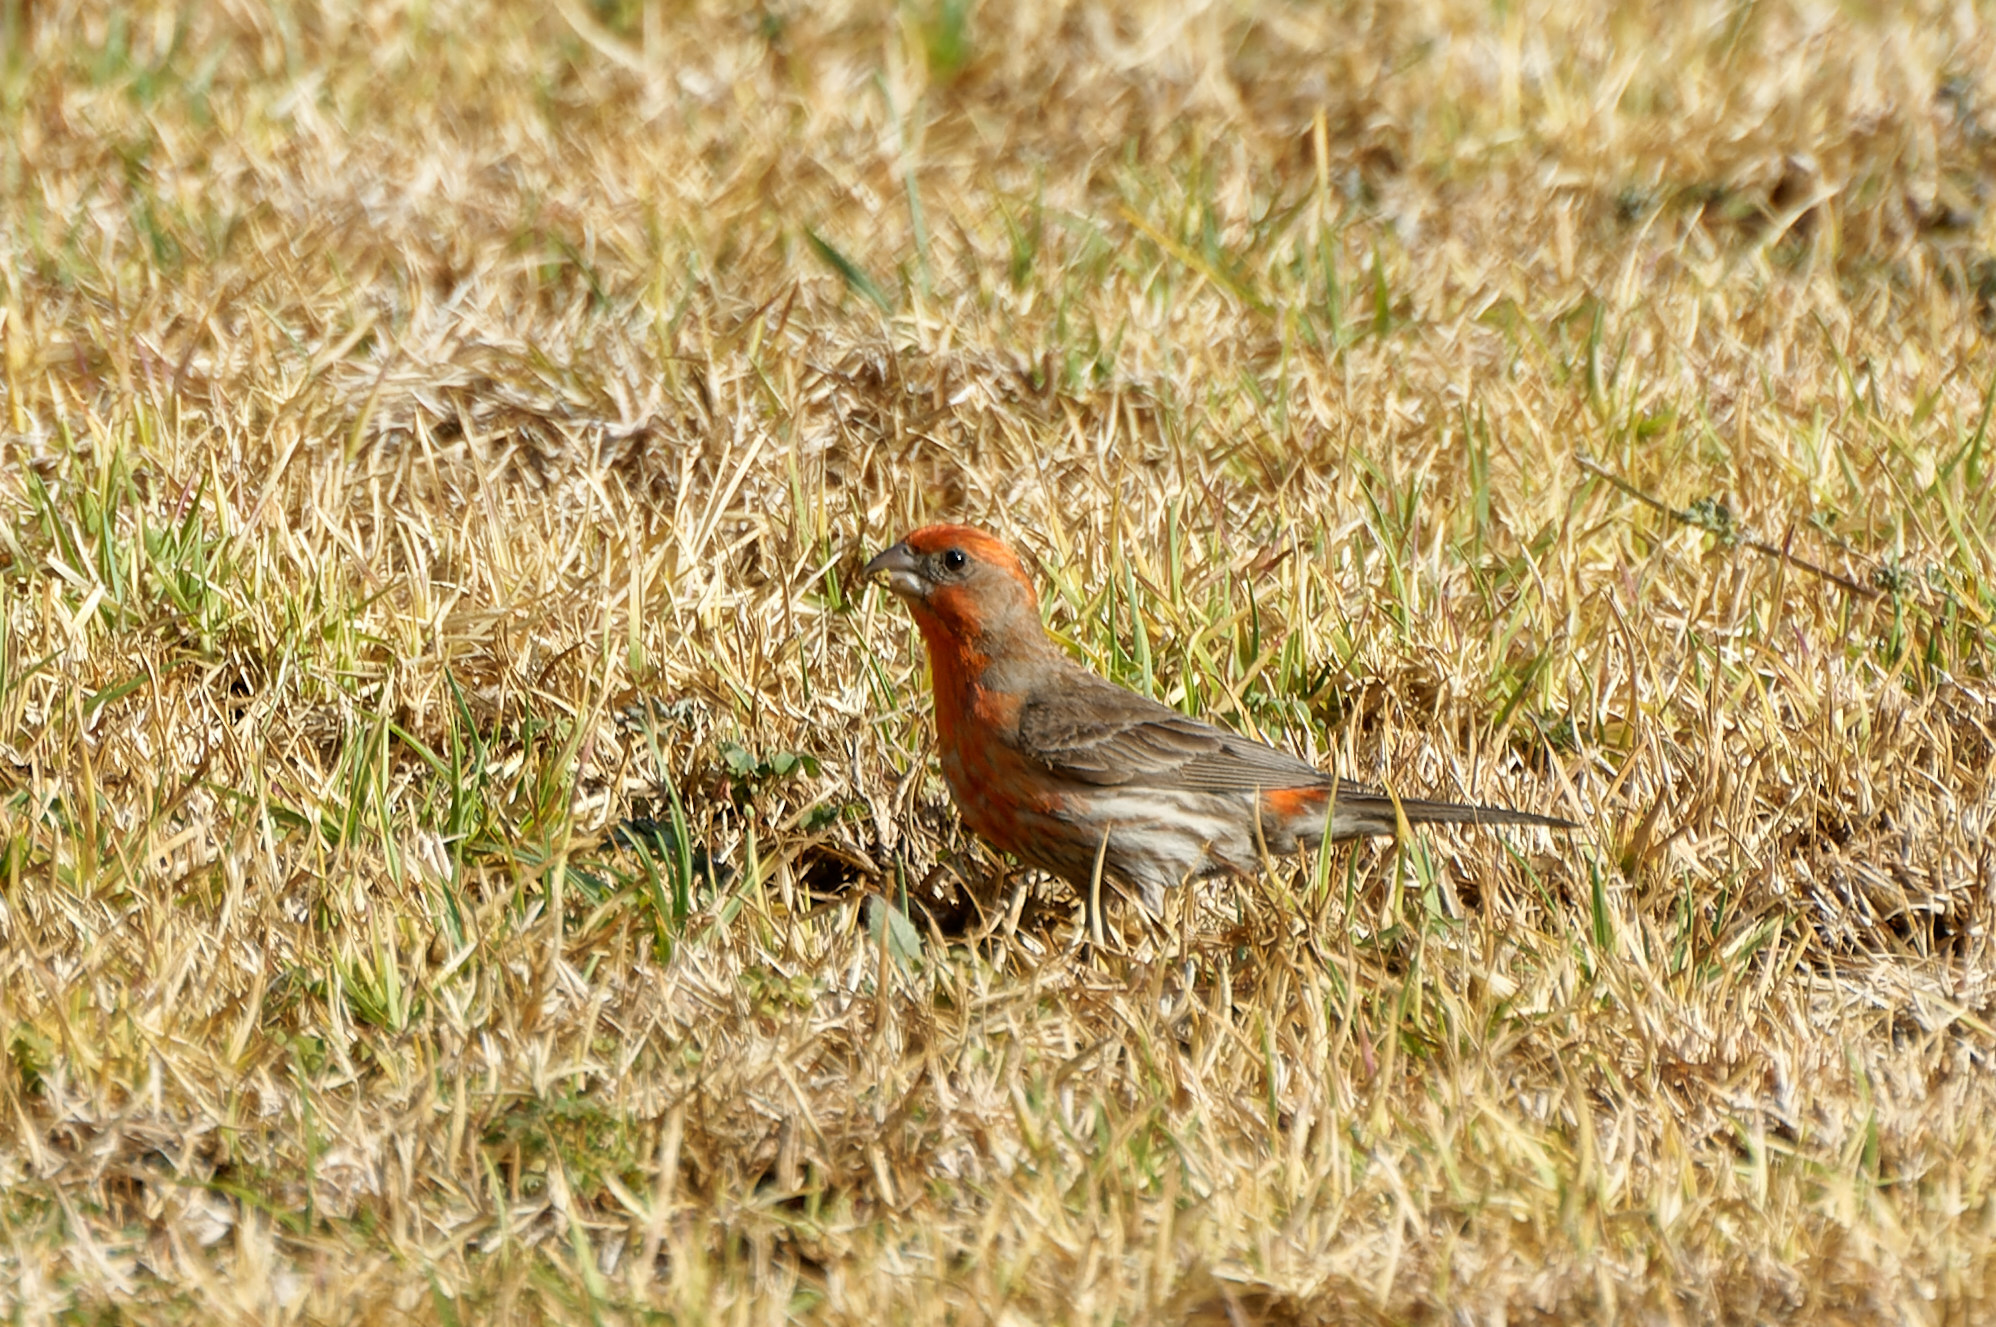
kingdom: Animalia
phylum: Chordata
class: Aves
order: Passeriformes
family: Fringillidae
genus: Haemorhous
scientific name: Haemorhous mexicanus
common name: House finch
